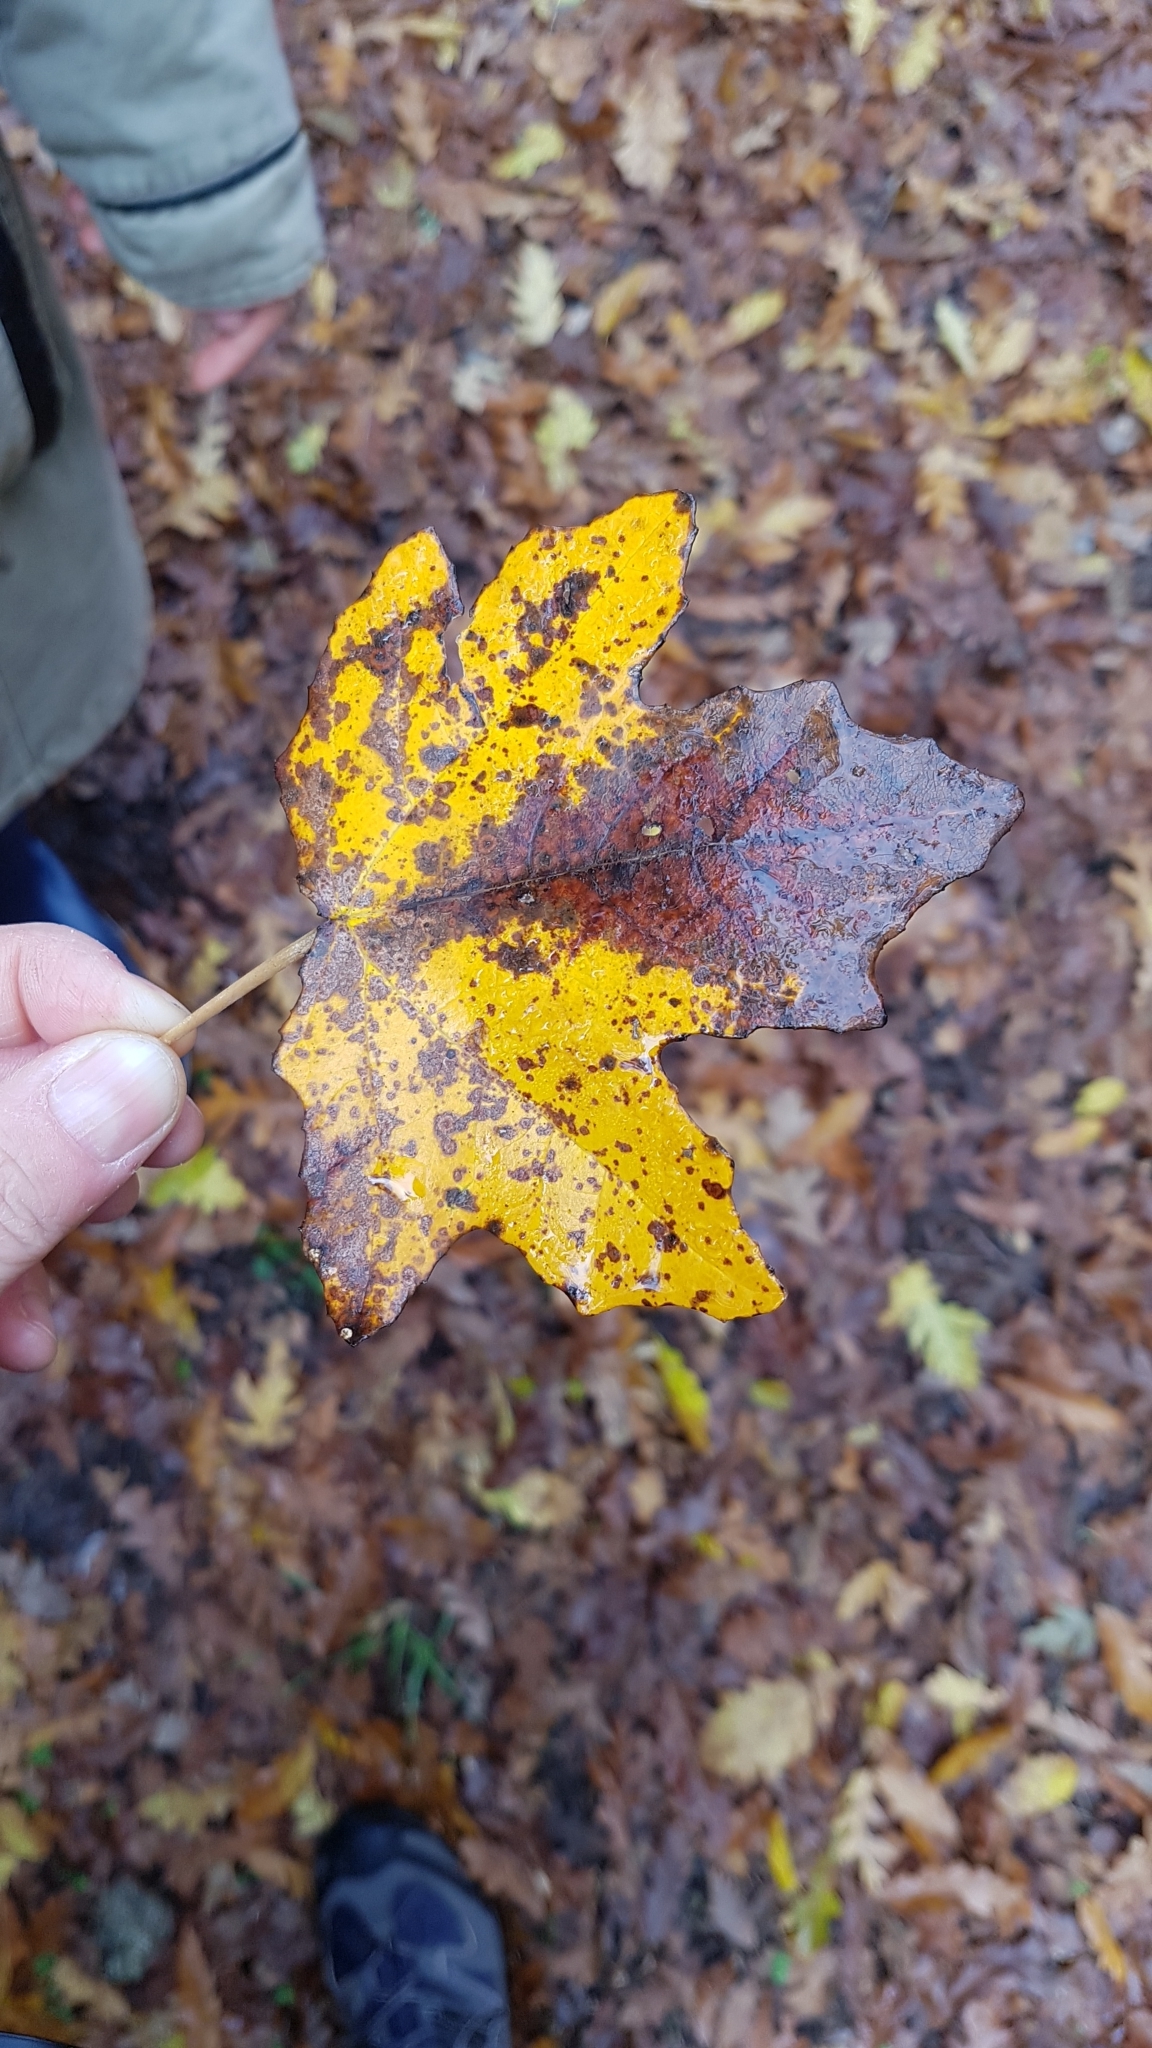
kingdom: Plantae
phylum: Tracheophyta
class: Magnoliopsida
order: Sapindales
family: Sapindaceae
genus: Acer
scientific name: Acer campestre
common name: Field maple
